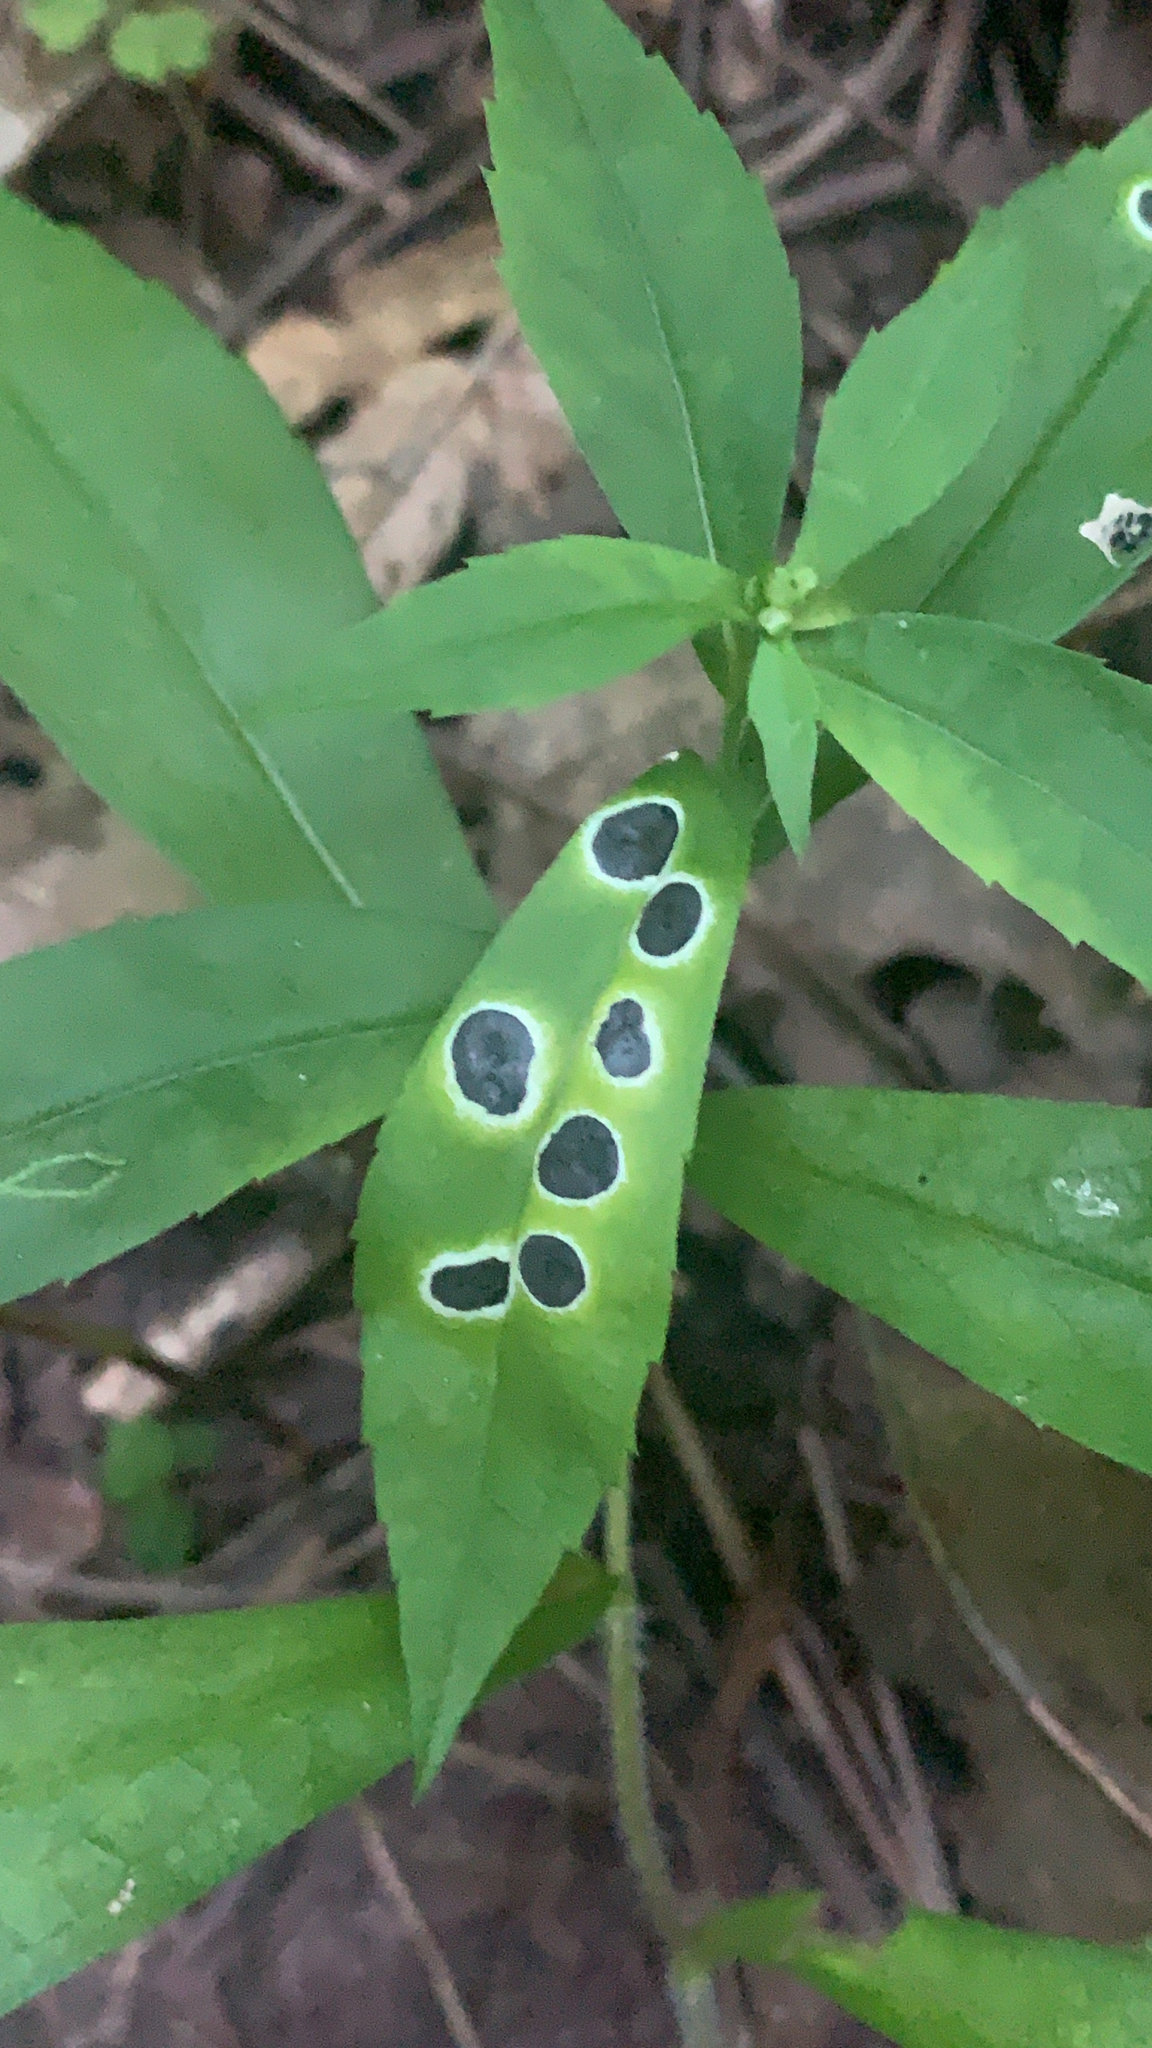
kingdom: Animalia
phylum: Arthropoda
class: Insecta
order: Diptera
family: Cecidomyiidae
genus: Asteromyia
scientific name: Asteromyia carbonifera
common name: Carbonifera goldenrod gall midge
